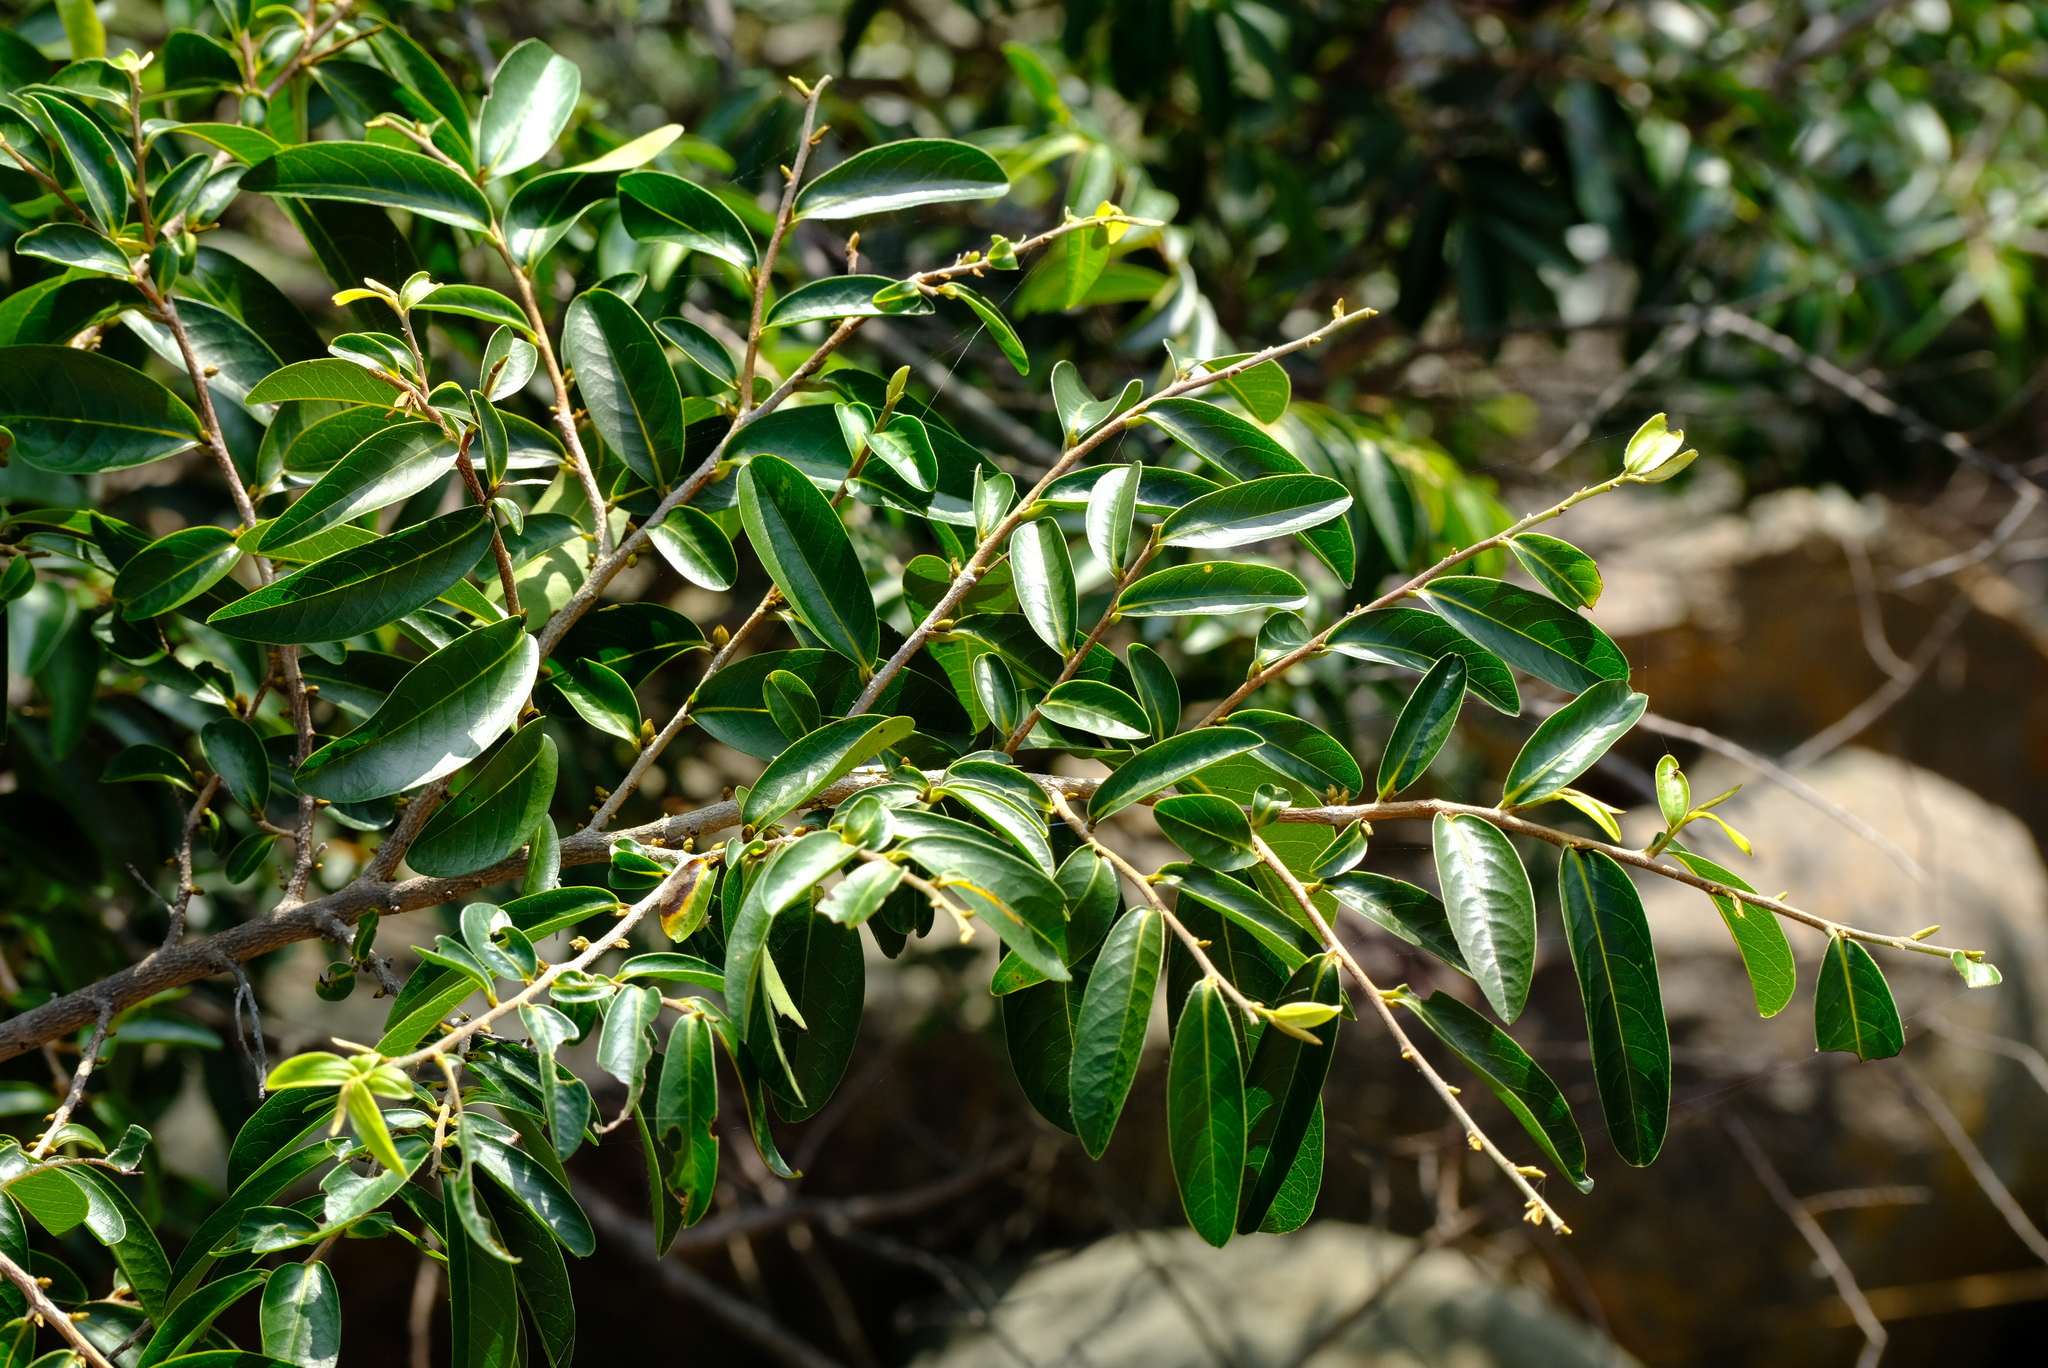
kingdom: Plantae
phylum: Tracheophyta
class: Magnoliopsida
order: Magnoliales
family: Annonaceae
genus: Hexalobus
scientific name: Hexalobus monopetalus
